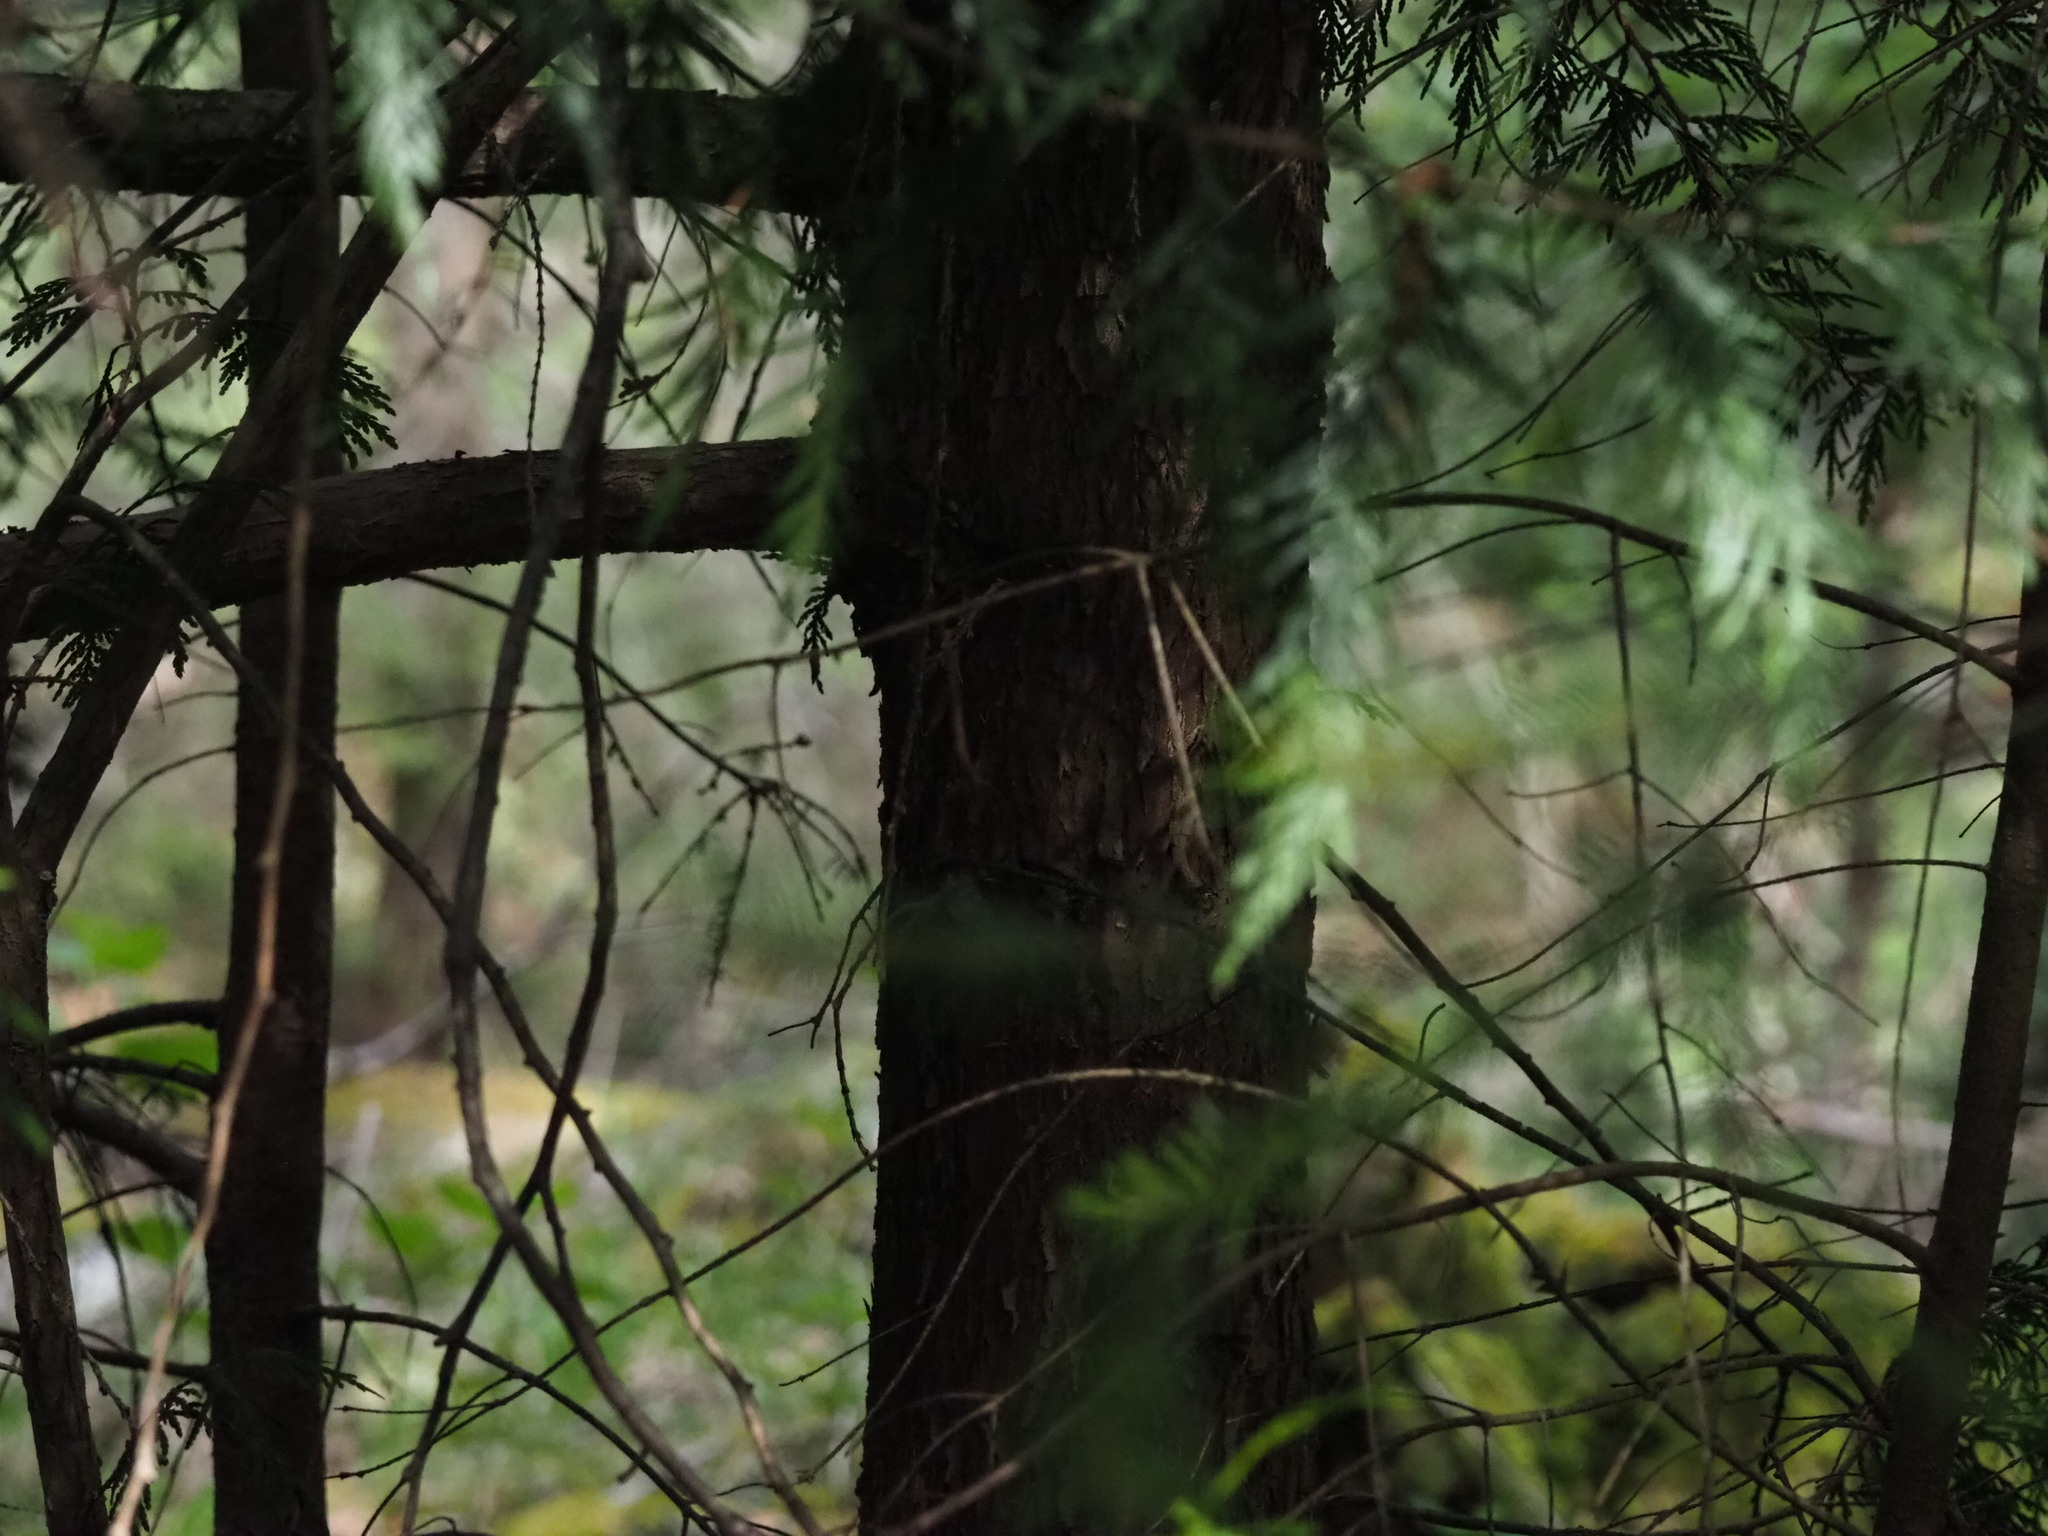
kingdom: Plantae
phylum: Tracheophyta
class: Pinopsida
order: Pinales
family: Cupressaceae
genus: Thuja
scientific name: Thuja plicata
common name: Western red-cedar
